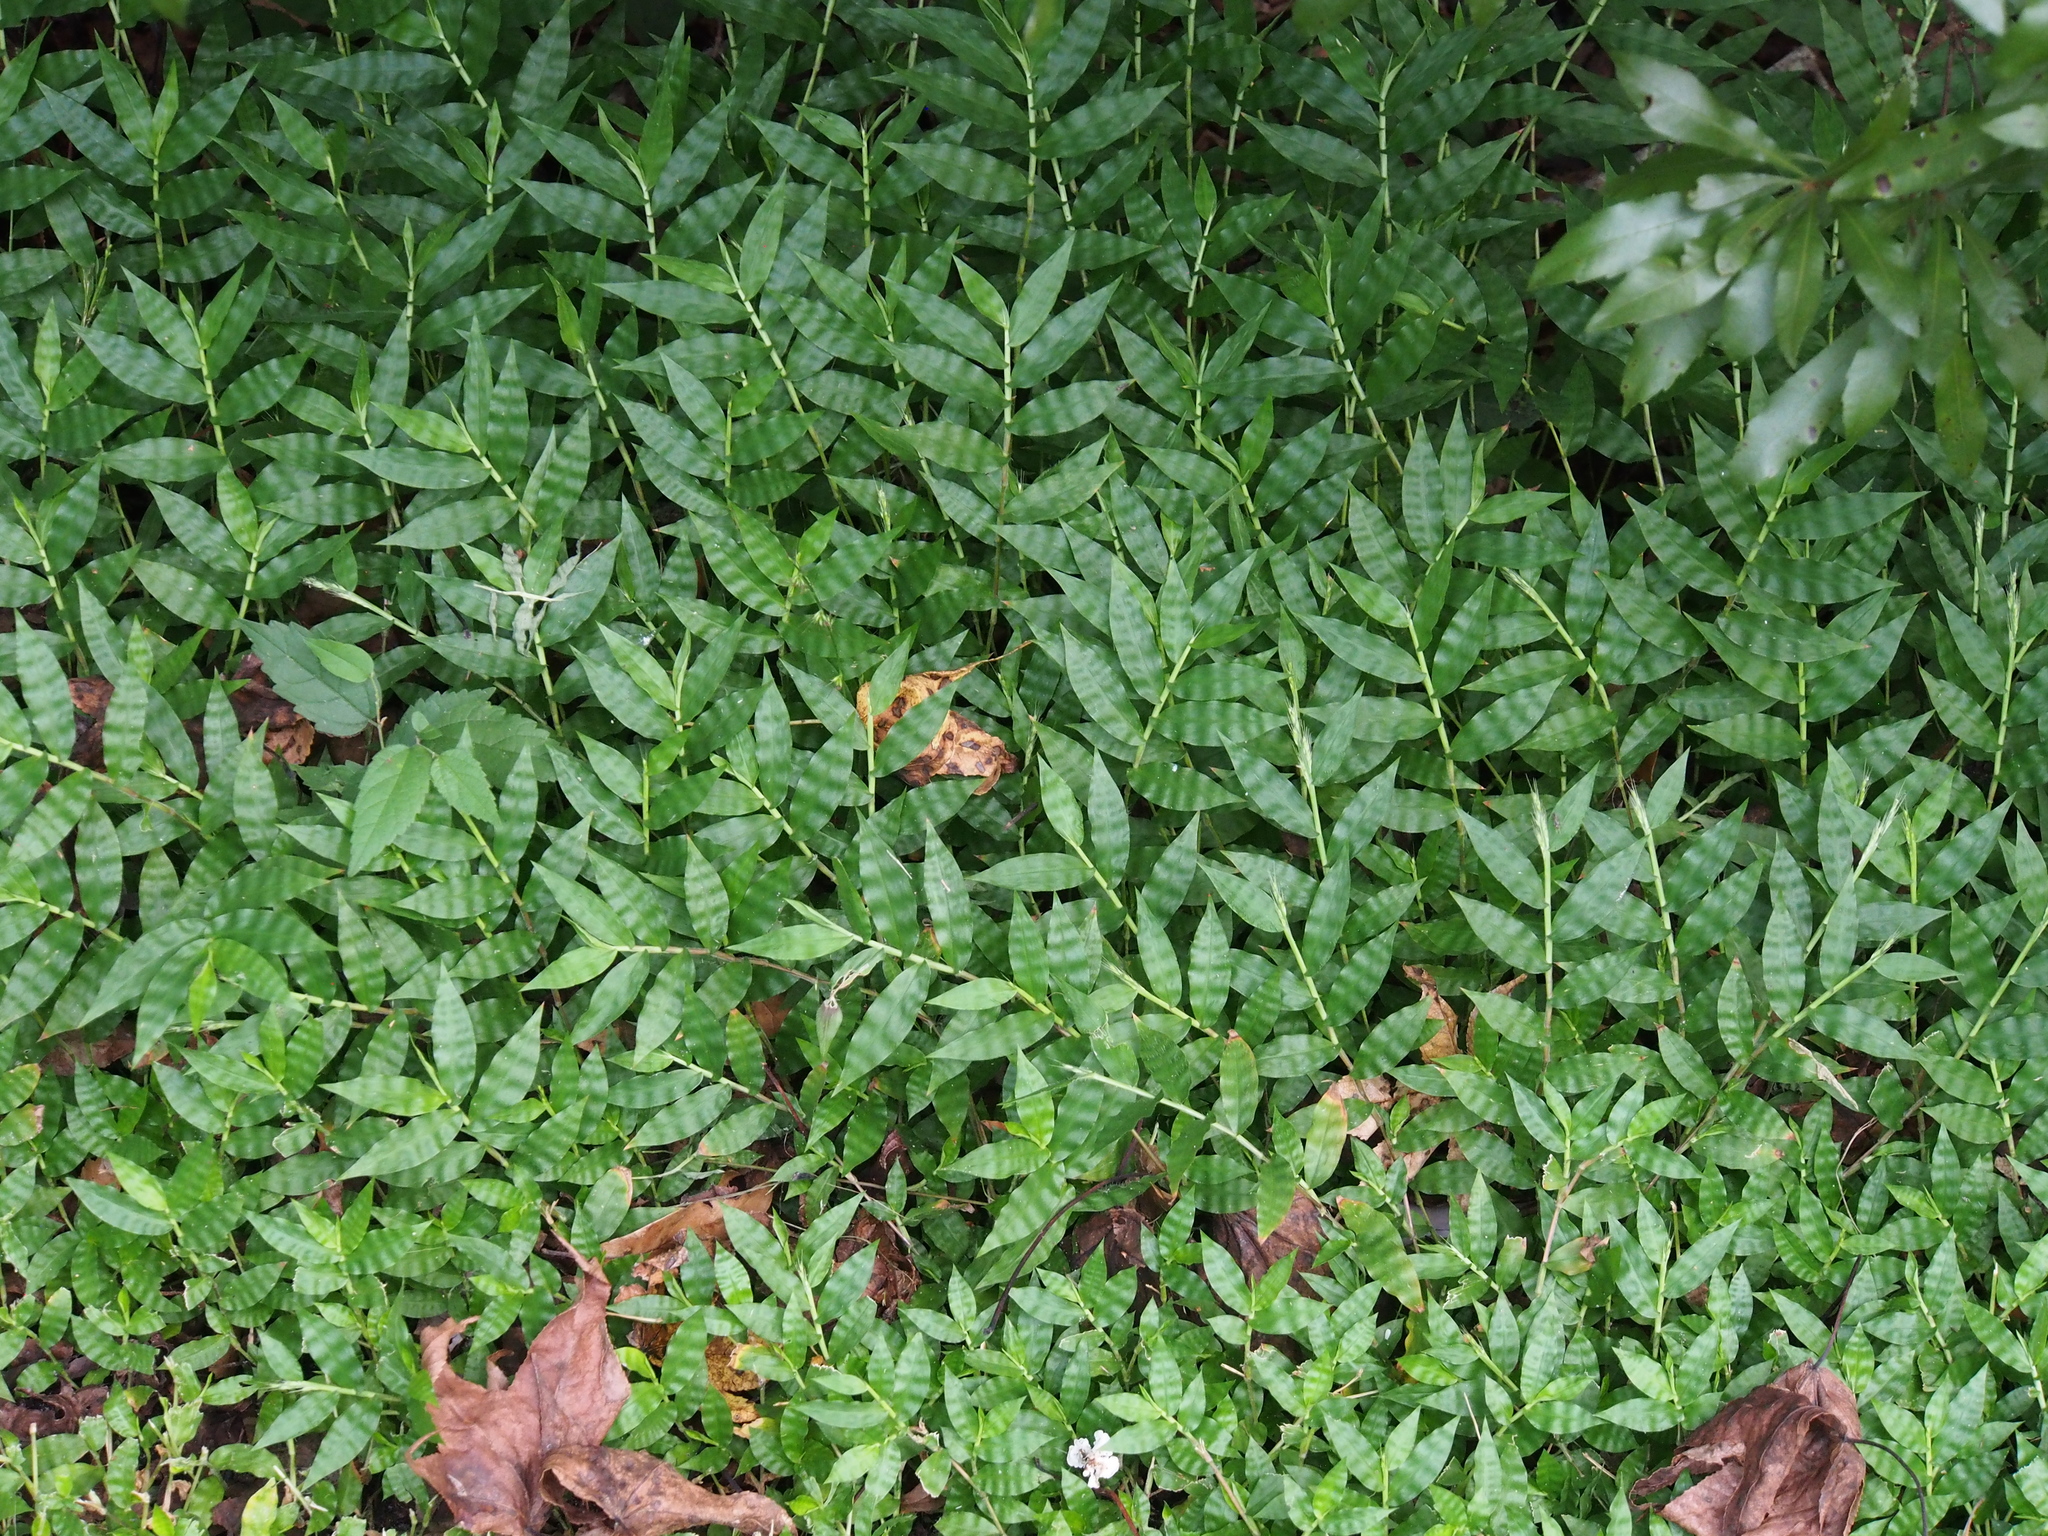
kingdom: Plantae
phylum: Tracheophyta
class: Liliopsida
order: Poales
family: Poaceae
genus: Oplismenus
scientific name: Oplismenus hirtellus
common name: Basketgrass
